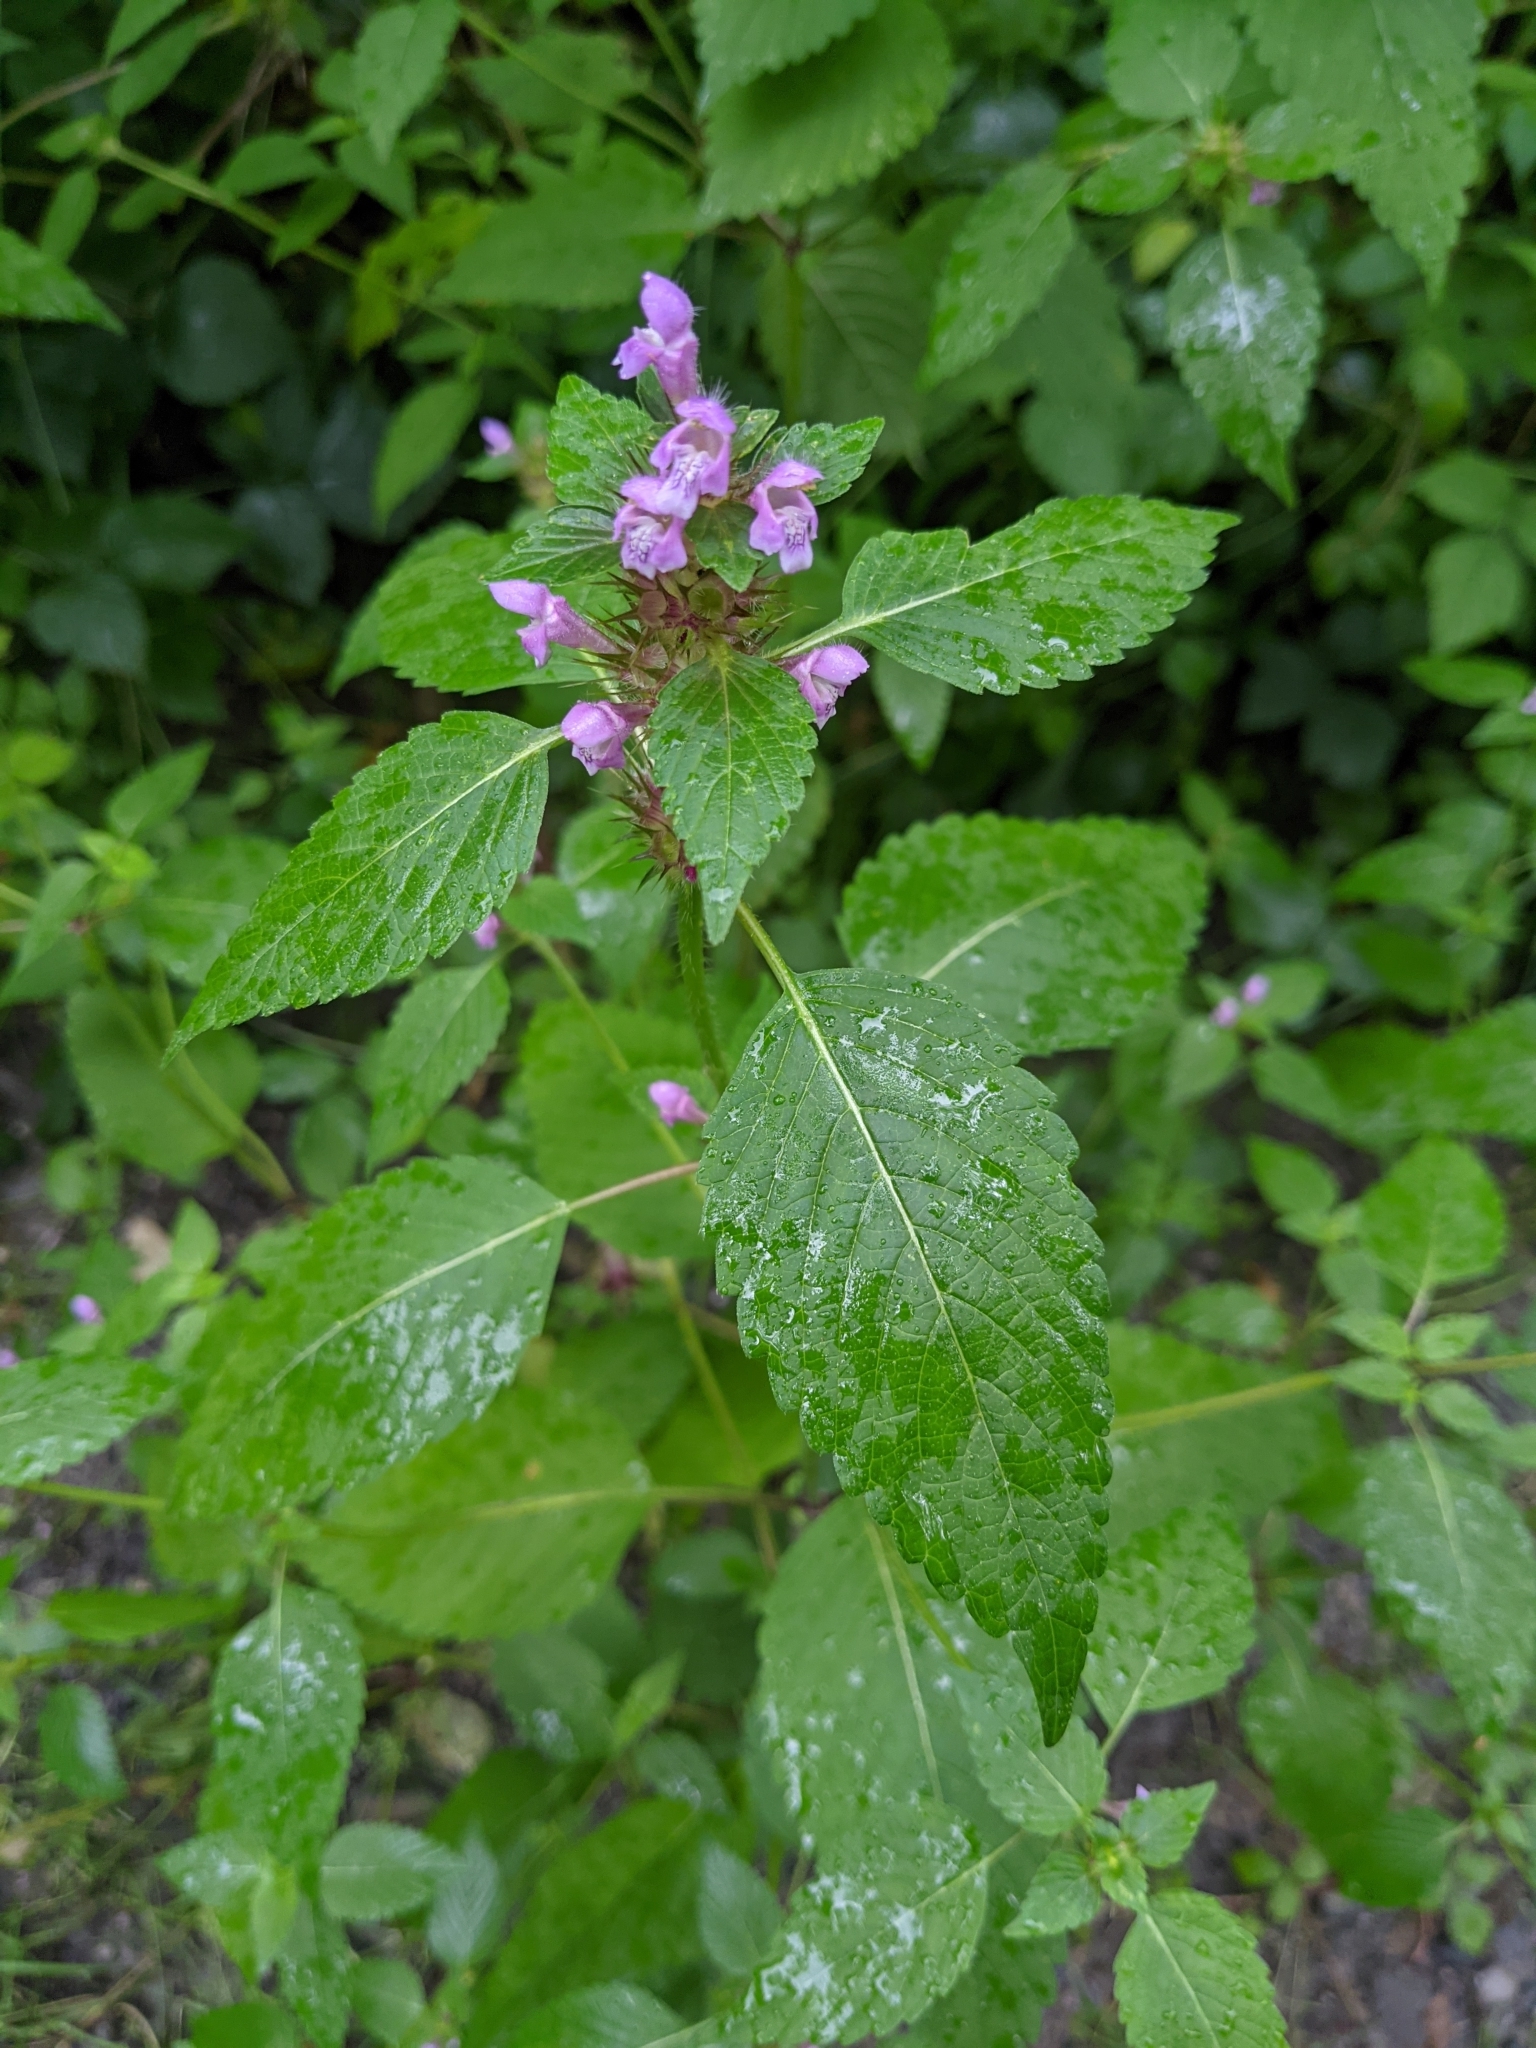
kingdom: Plantae
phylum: Tracheophyta
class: Magnoliopsida
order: Lamiales
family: Lamiaceae
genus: Galeopsis
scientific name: Galeopsis tetrahit
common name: Common hemp-nettle
